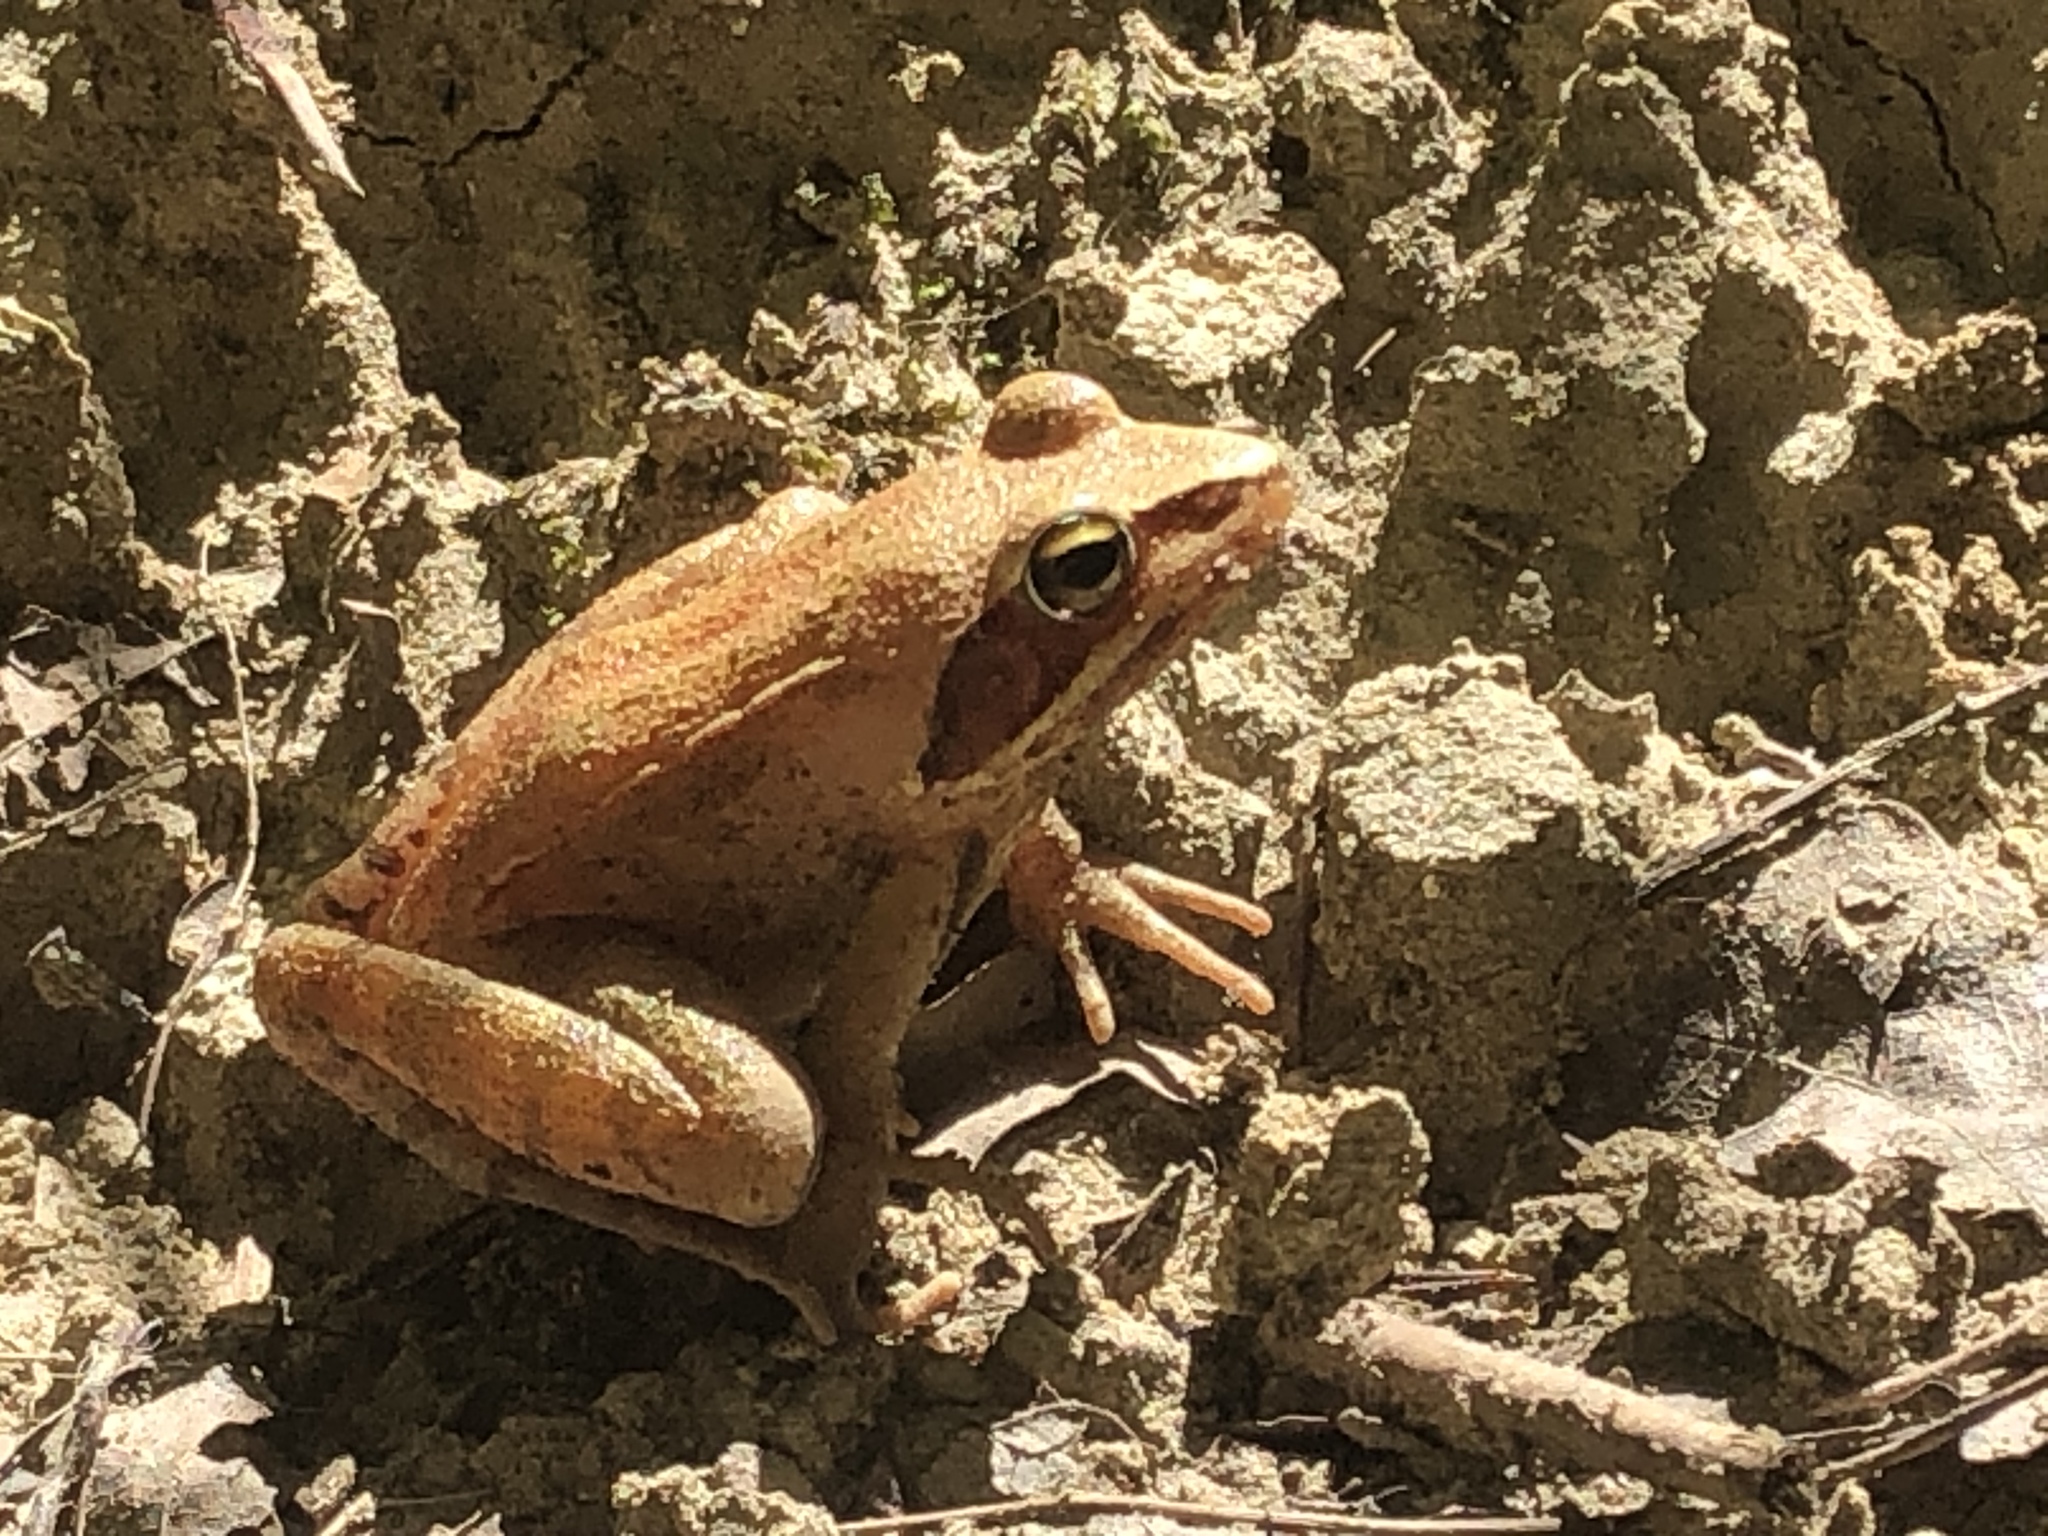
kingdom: Animalia
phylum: Chordata
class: Amphibia
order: Anura
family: Ranidae
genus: Rana
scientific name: Rana dalmatina
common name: Agile frog
